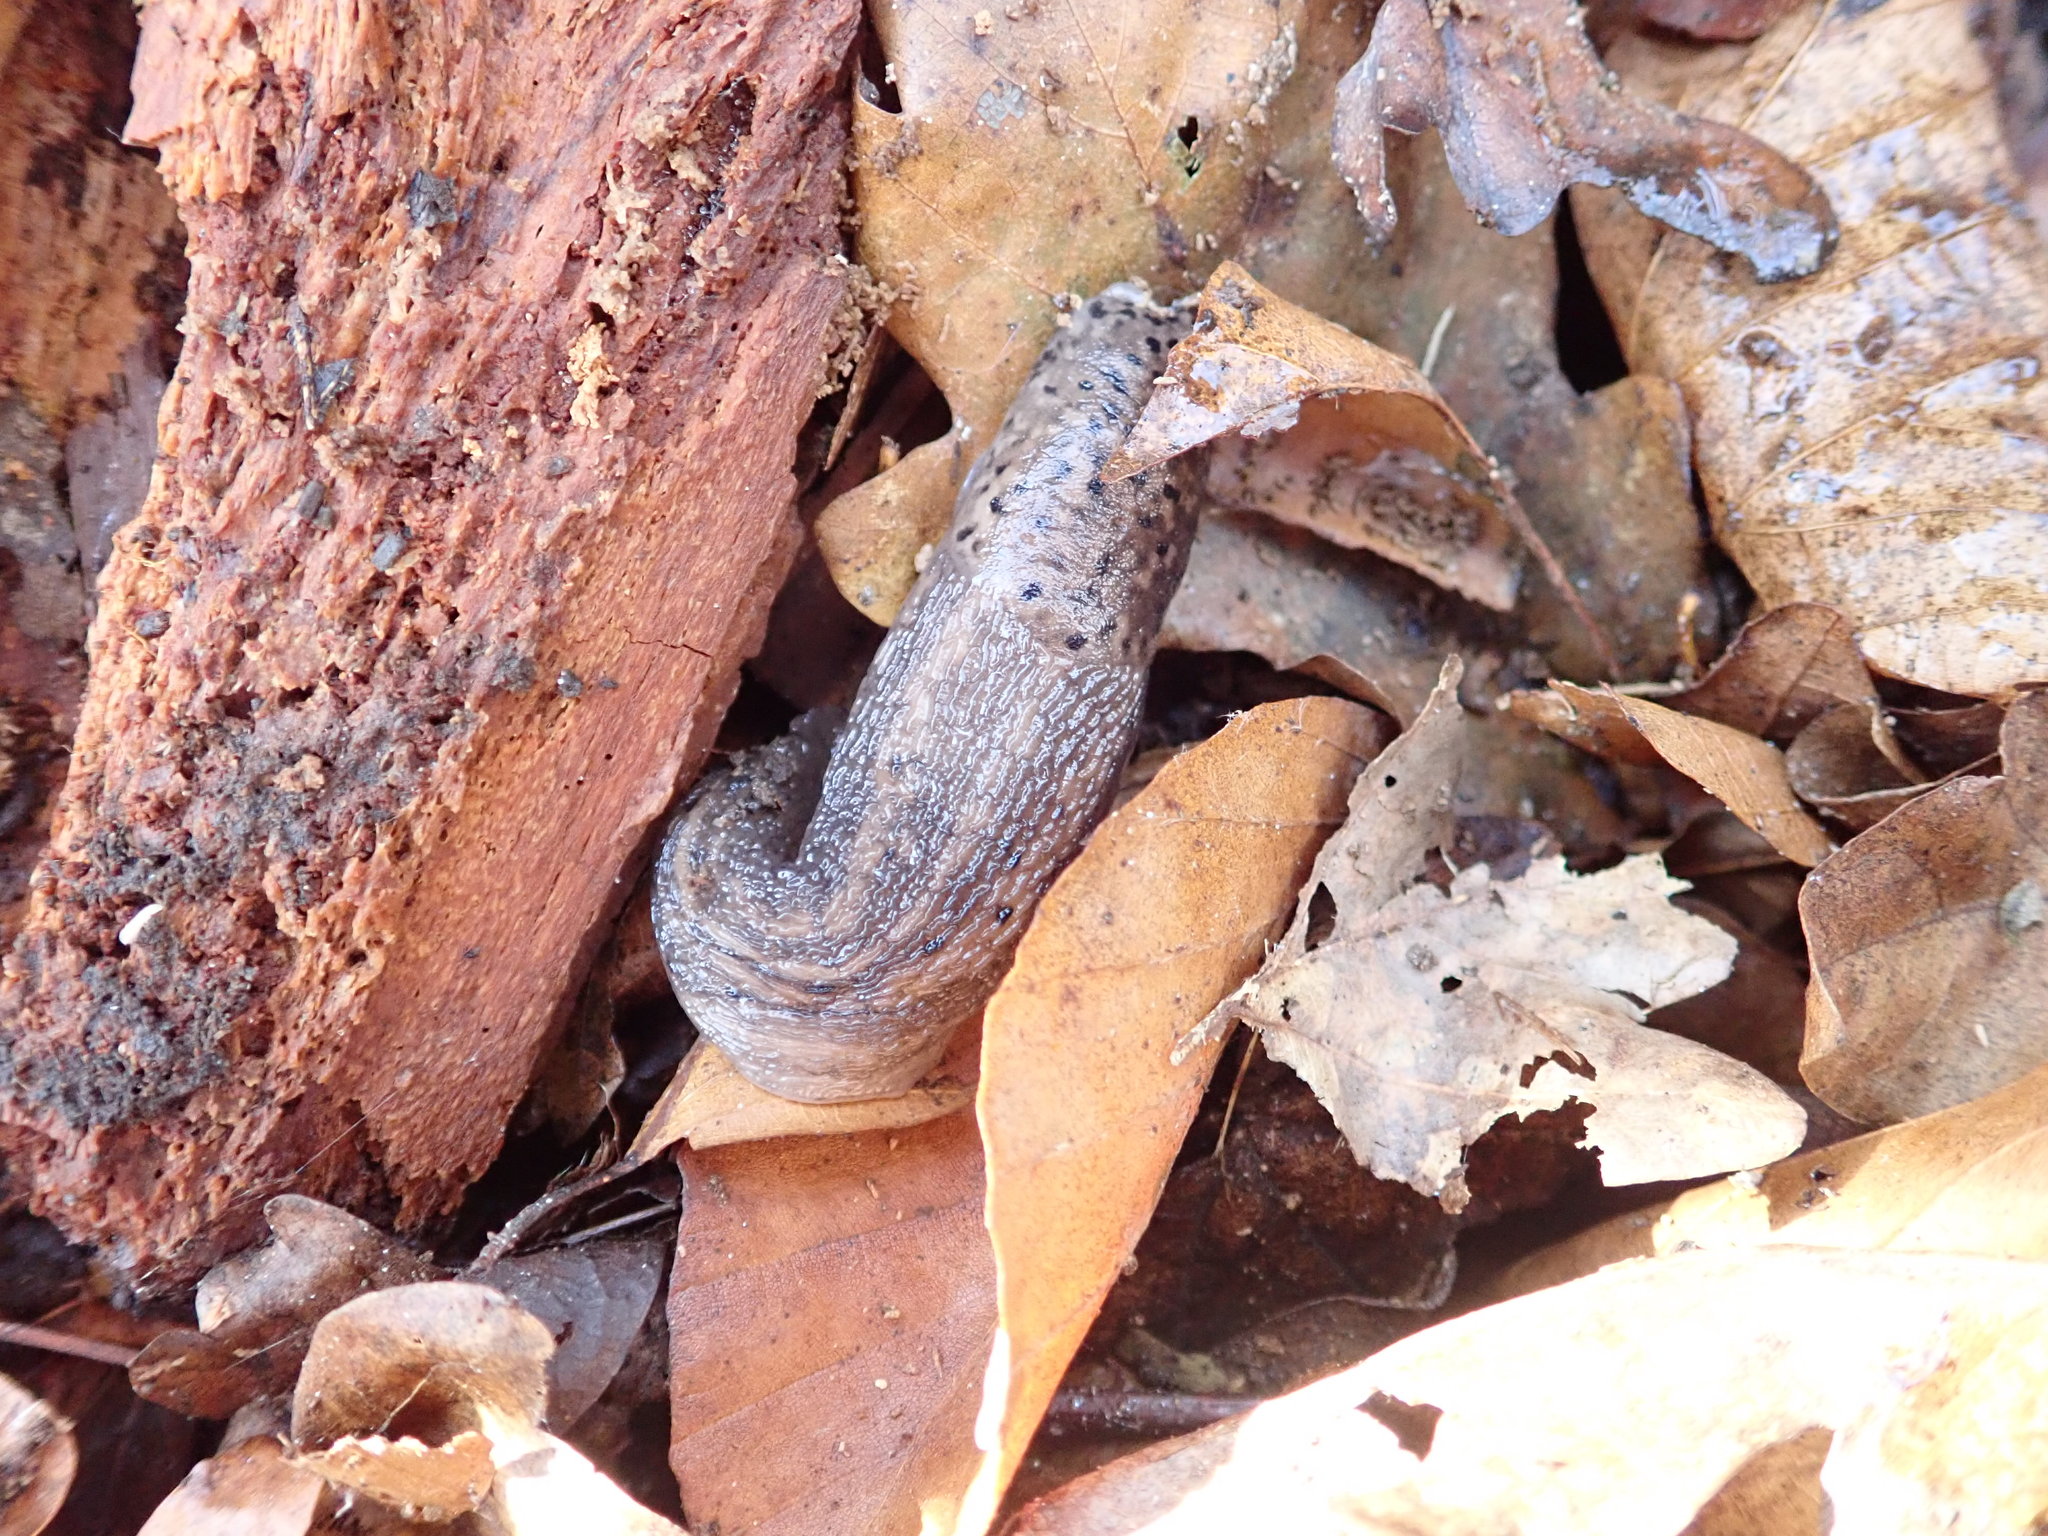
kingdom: Animalia
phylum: Mollusca
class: Gastropoda
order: Stylommatophora
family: Limacidae
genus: Limax
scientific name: Limax maximus
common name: Great grey slug
